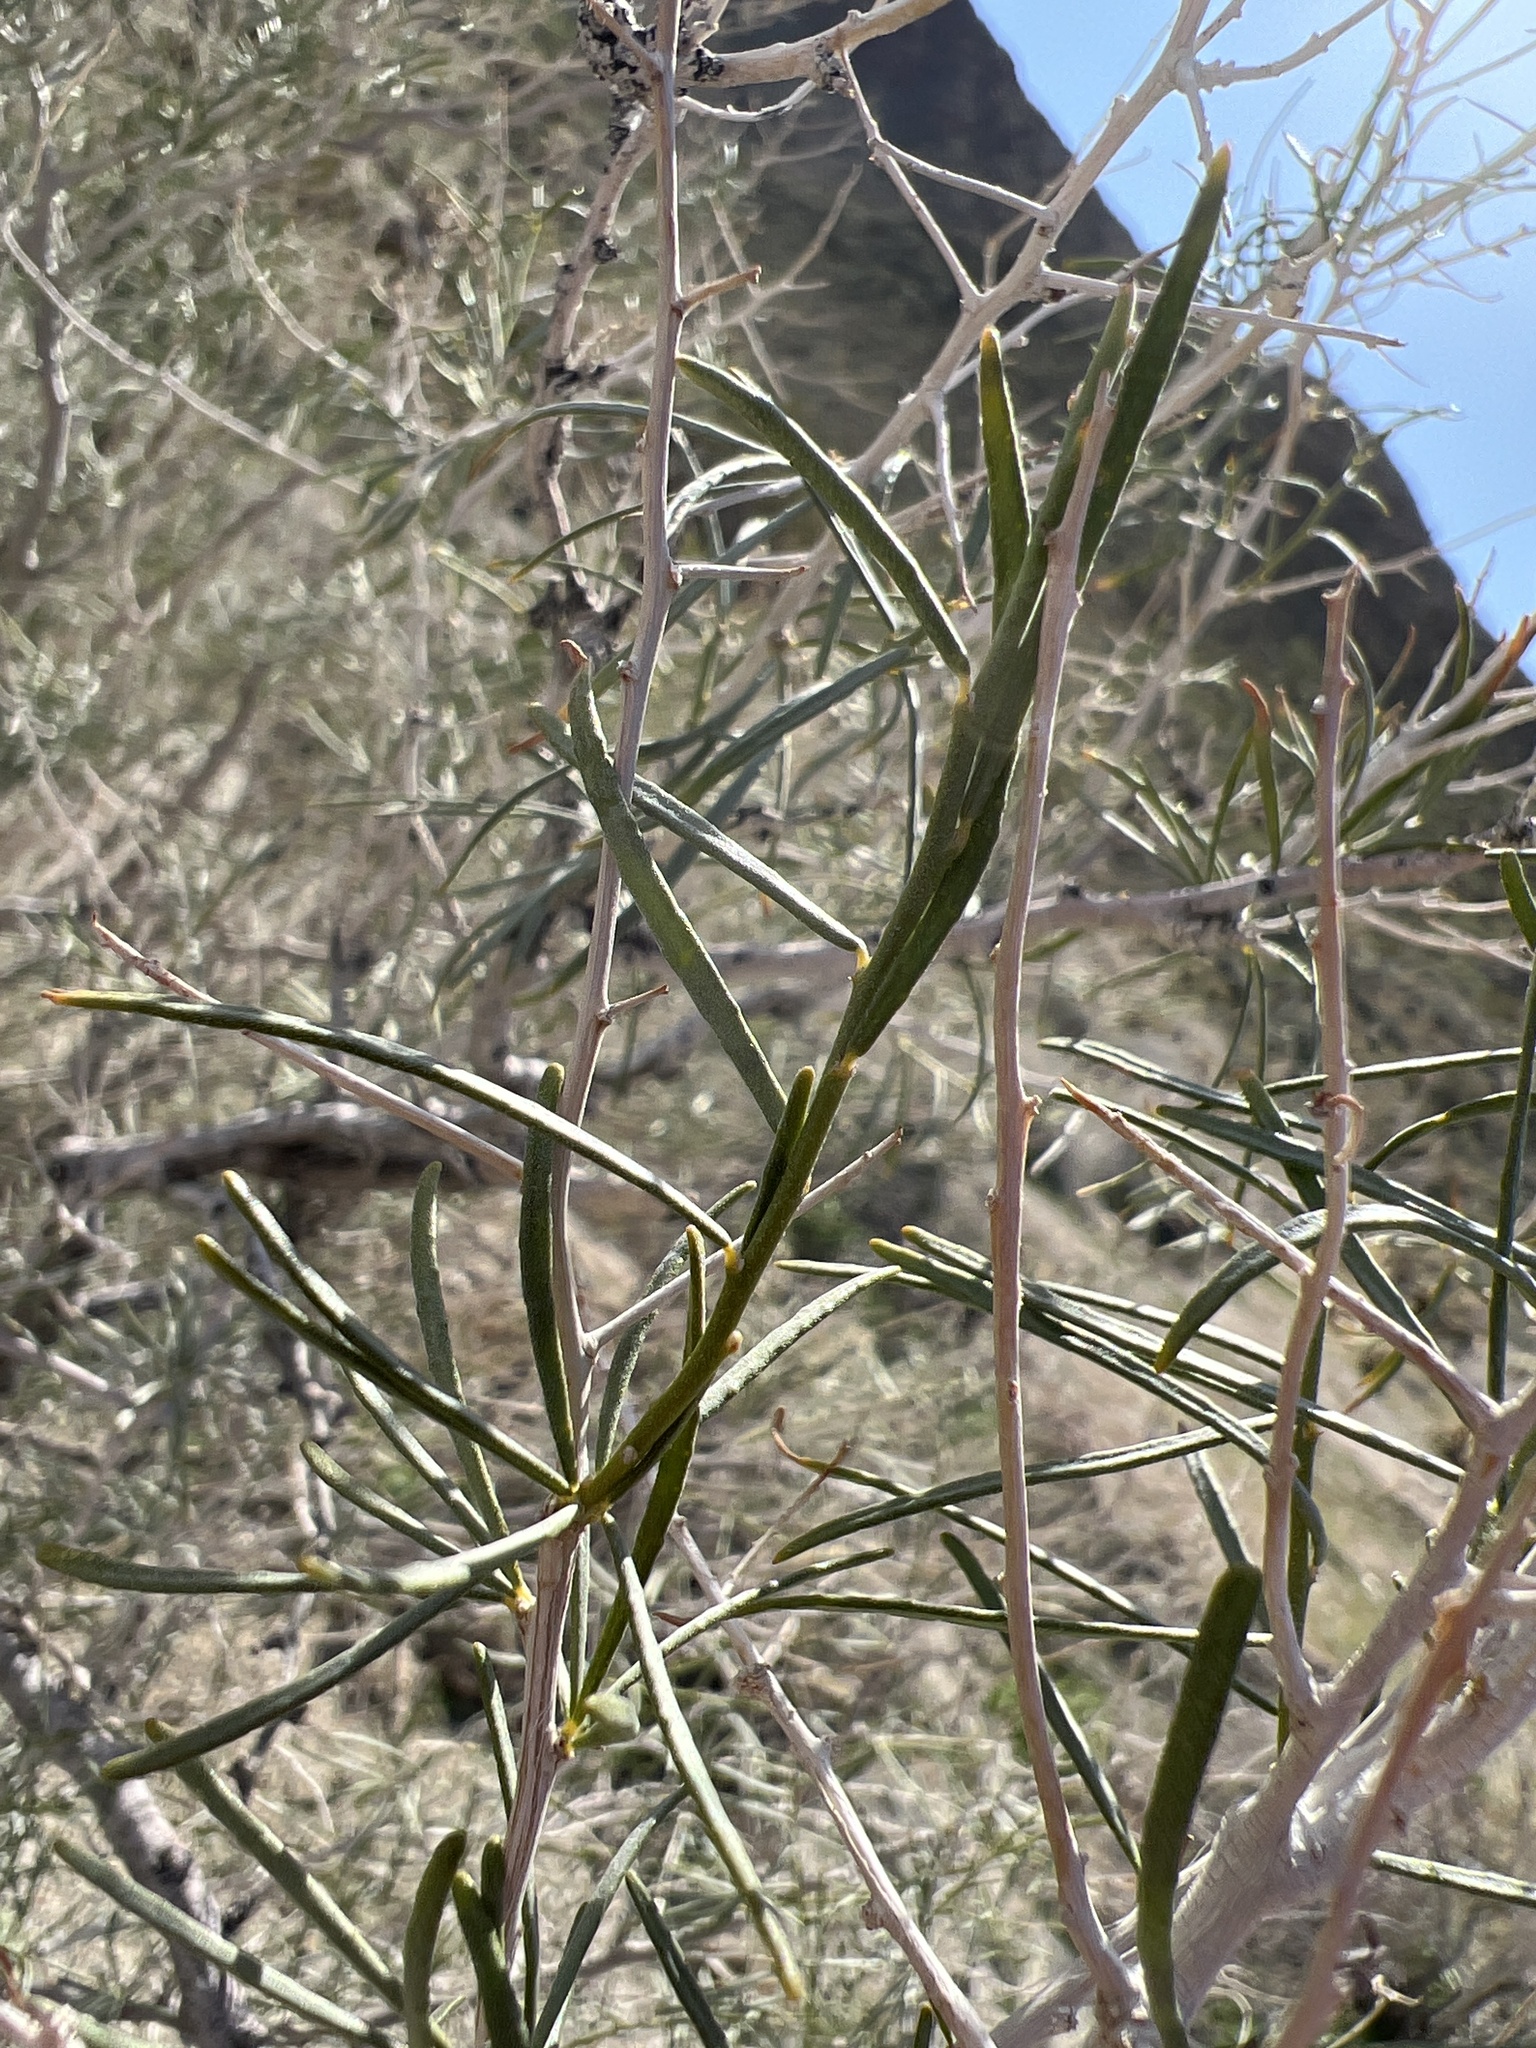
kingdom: Plantae
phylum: Tracheophyta
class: Magnoliopsida
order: Fabales
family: Fabaceae
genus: Psorothamnus
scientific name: Psorothamnus schottii
